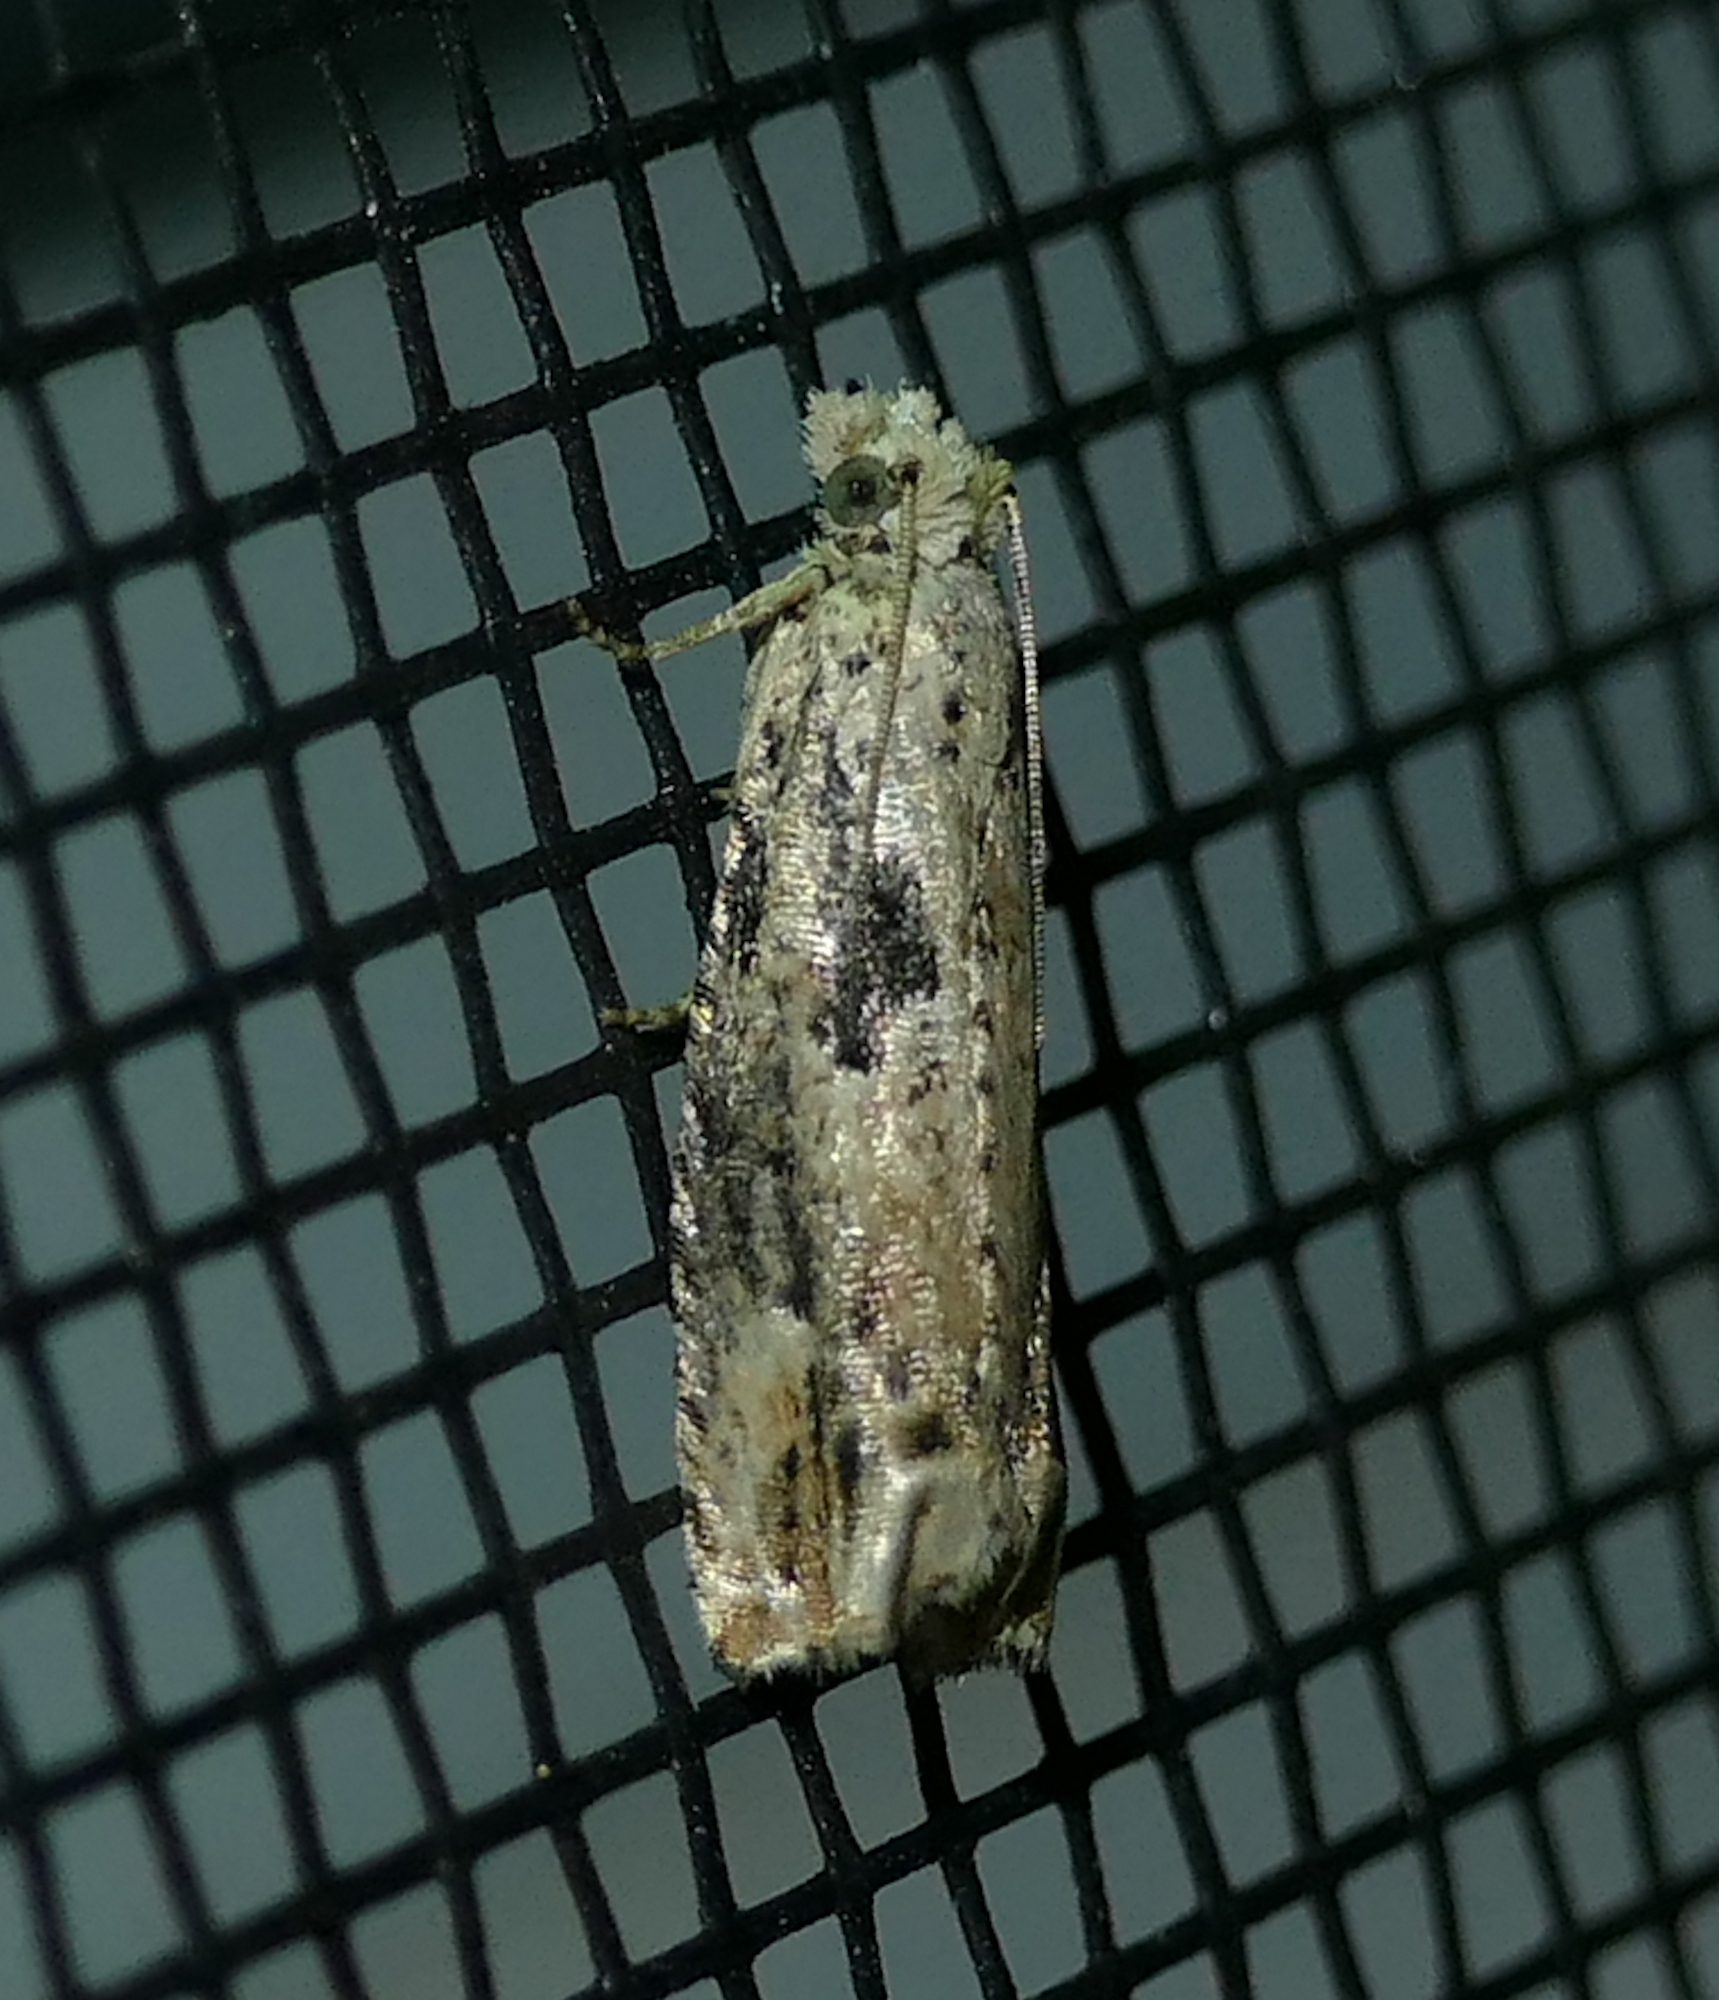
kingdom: Animalia
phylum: Arthropoda
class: Insecta
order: Lepidoptera
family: Tortricidae
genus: Epiblema
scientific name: Epiblema chromata
